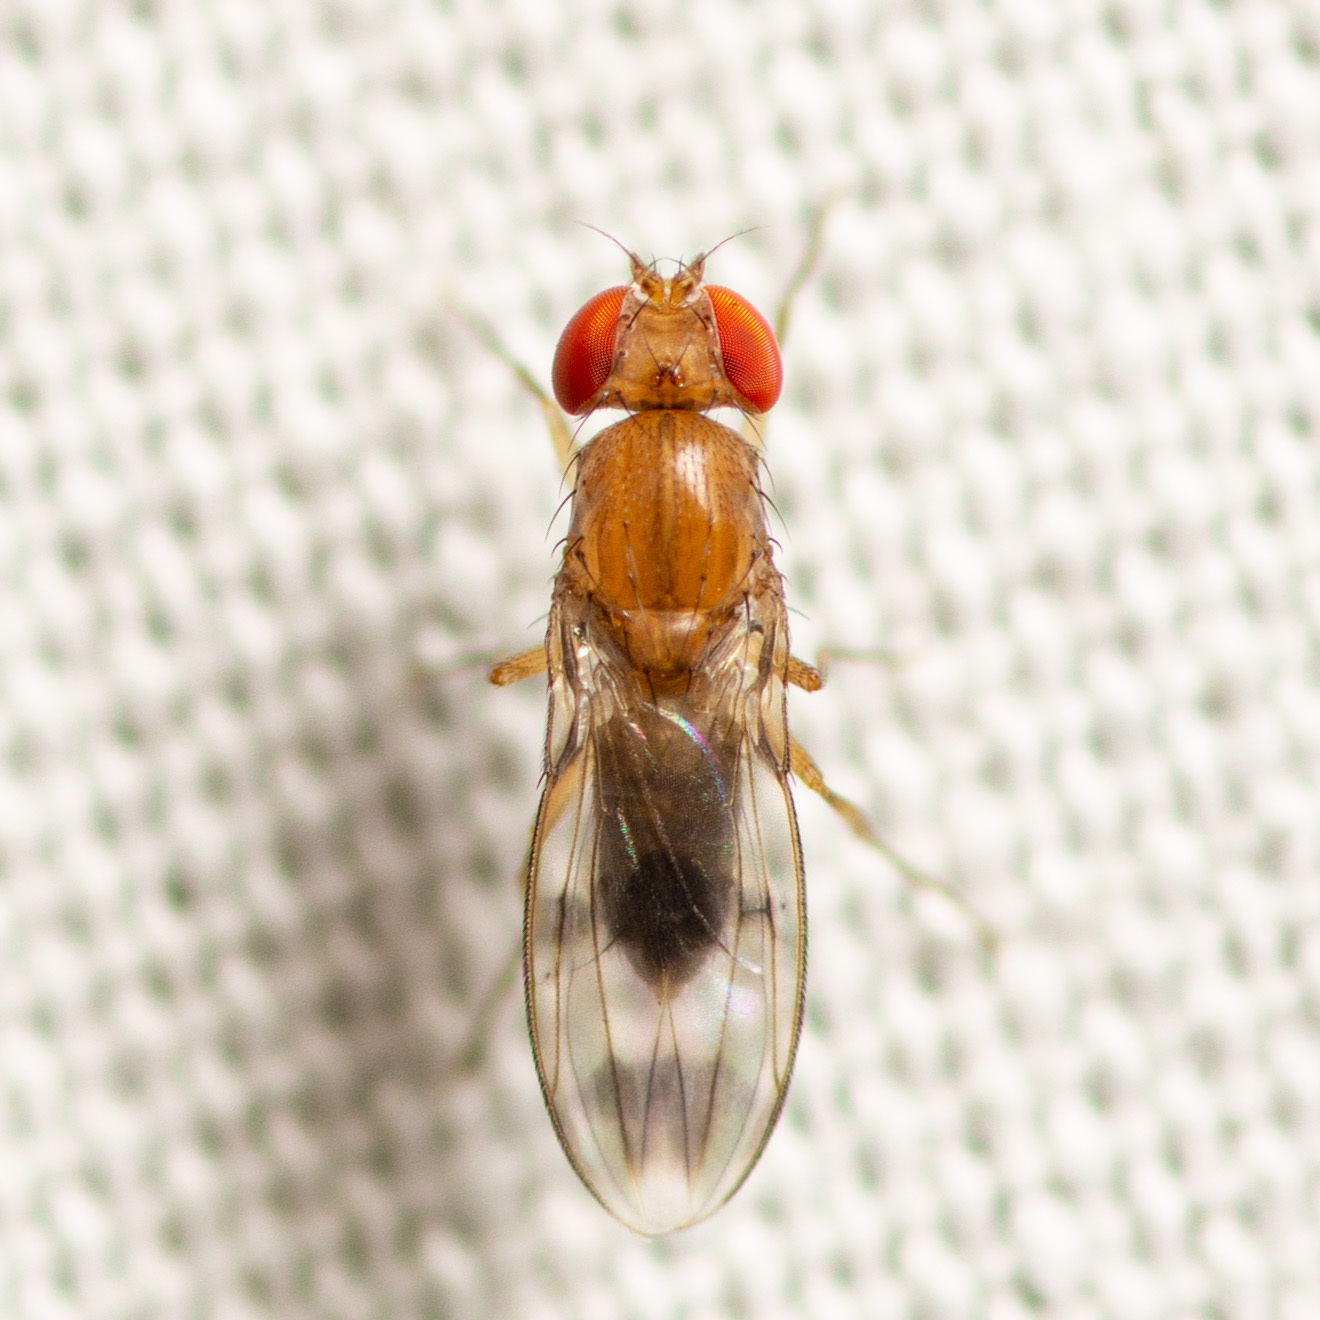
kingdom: Animalia
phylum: Arthropoda
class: Insecta
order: Diptera
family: Drosophilidae
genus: Chymomyza
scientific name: Chymomyza amoena
